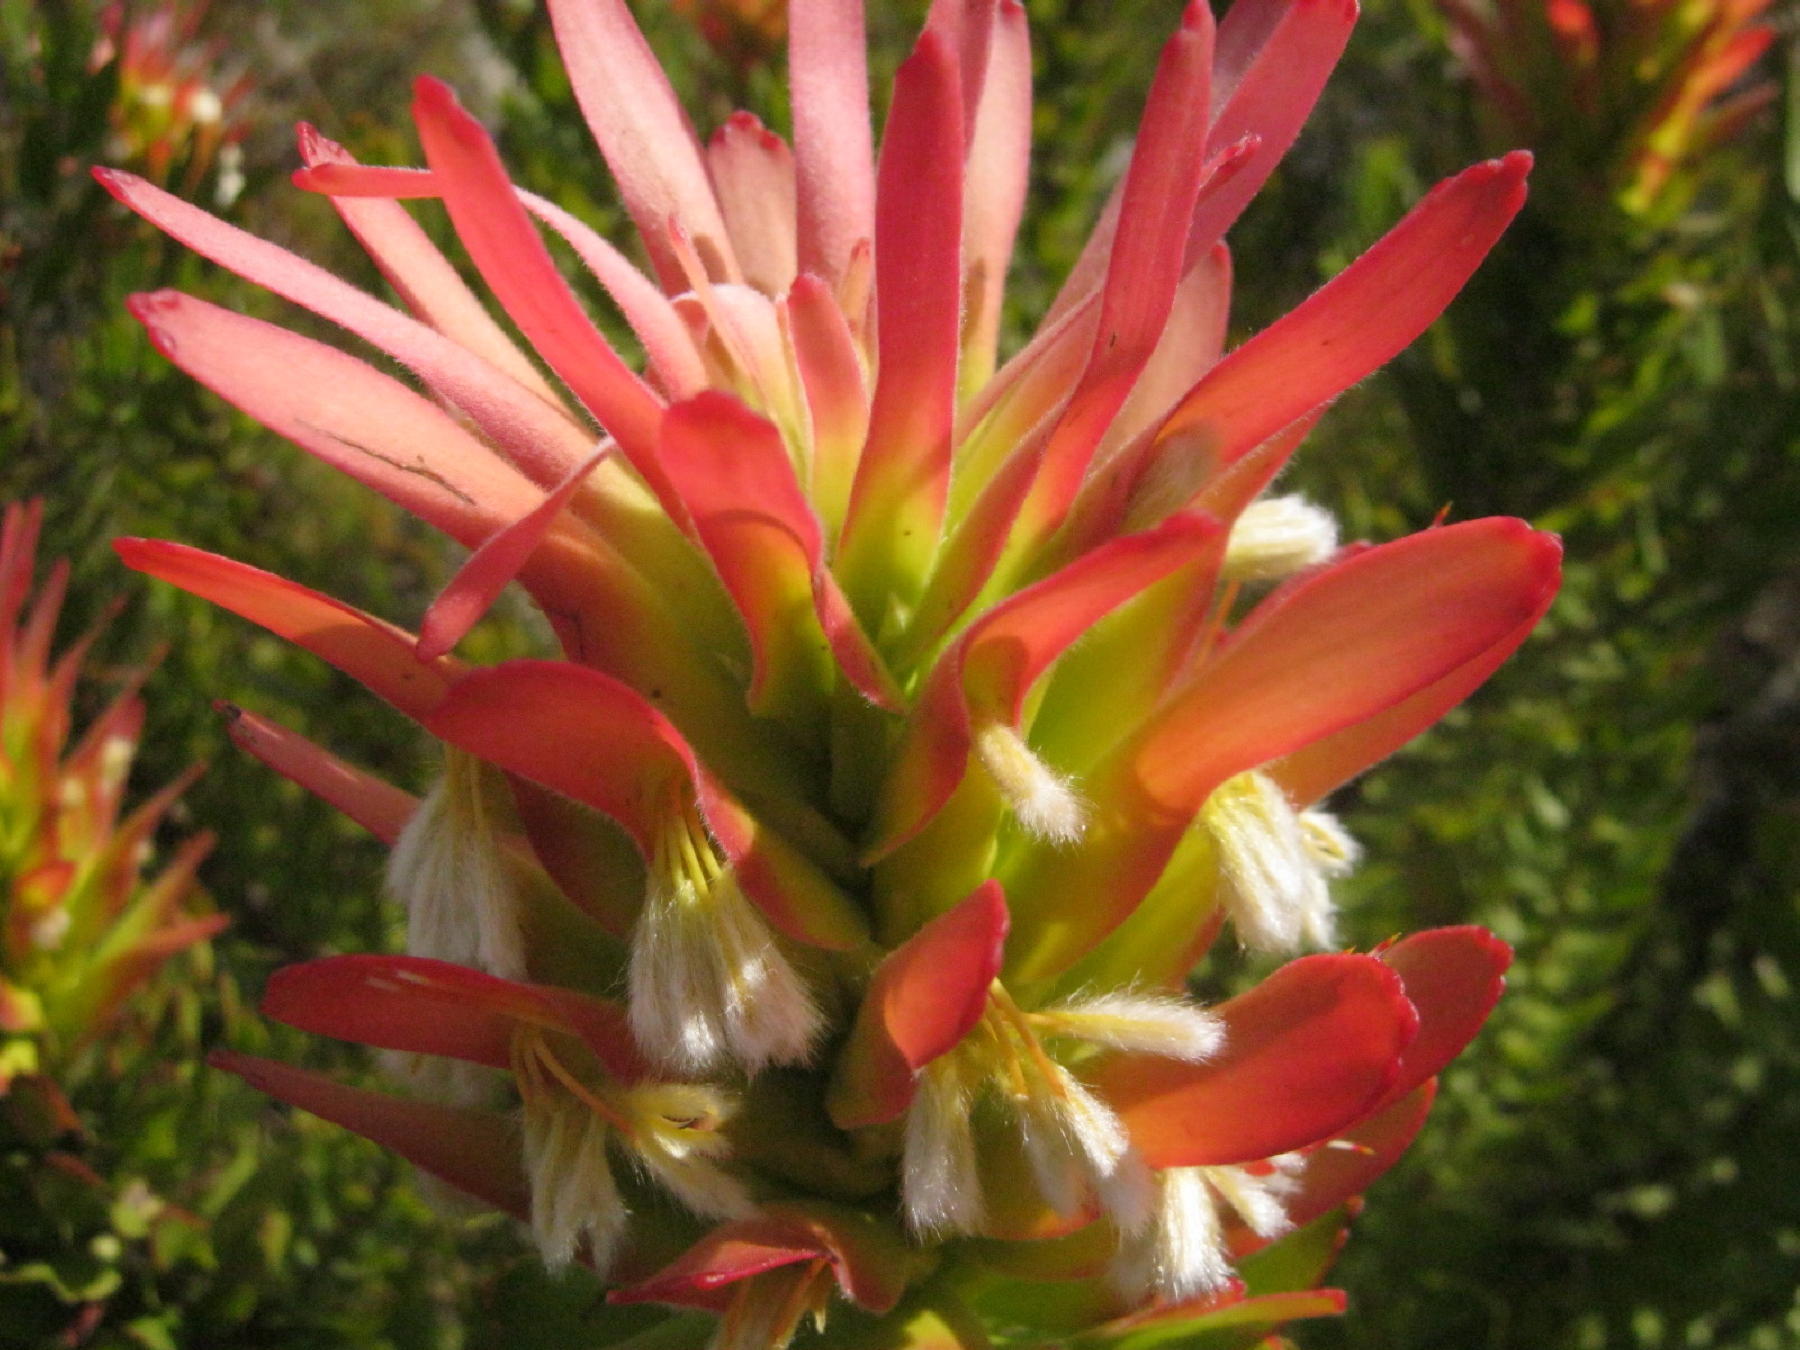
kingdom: Plantae
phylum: Tracheophyta
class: Magnoliopsida
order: Proteales
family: Proteaceae
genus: Mimetes
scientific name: Mimetes cucullatus
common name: Common pagoda
